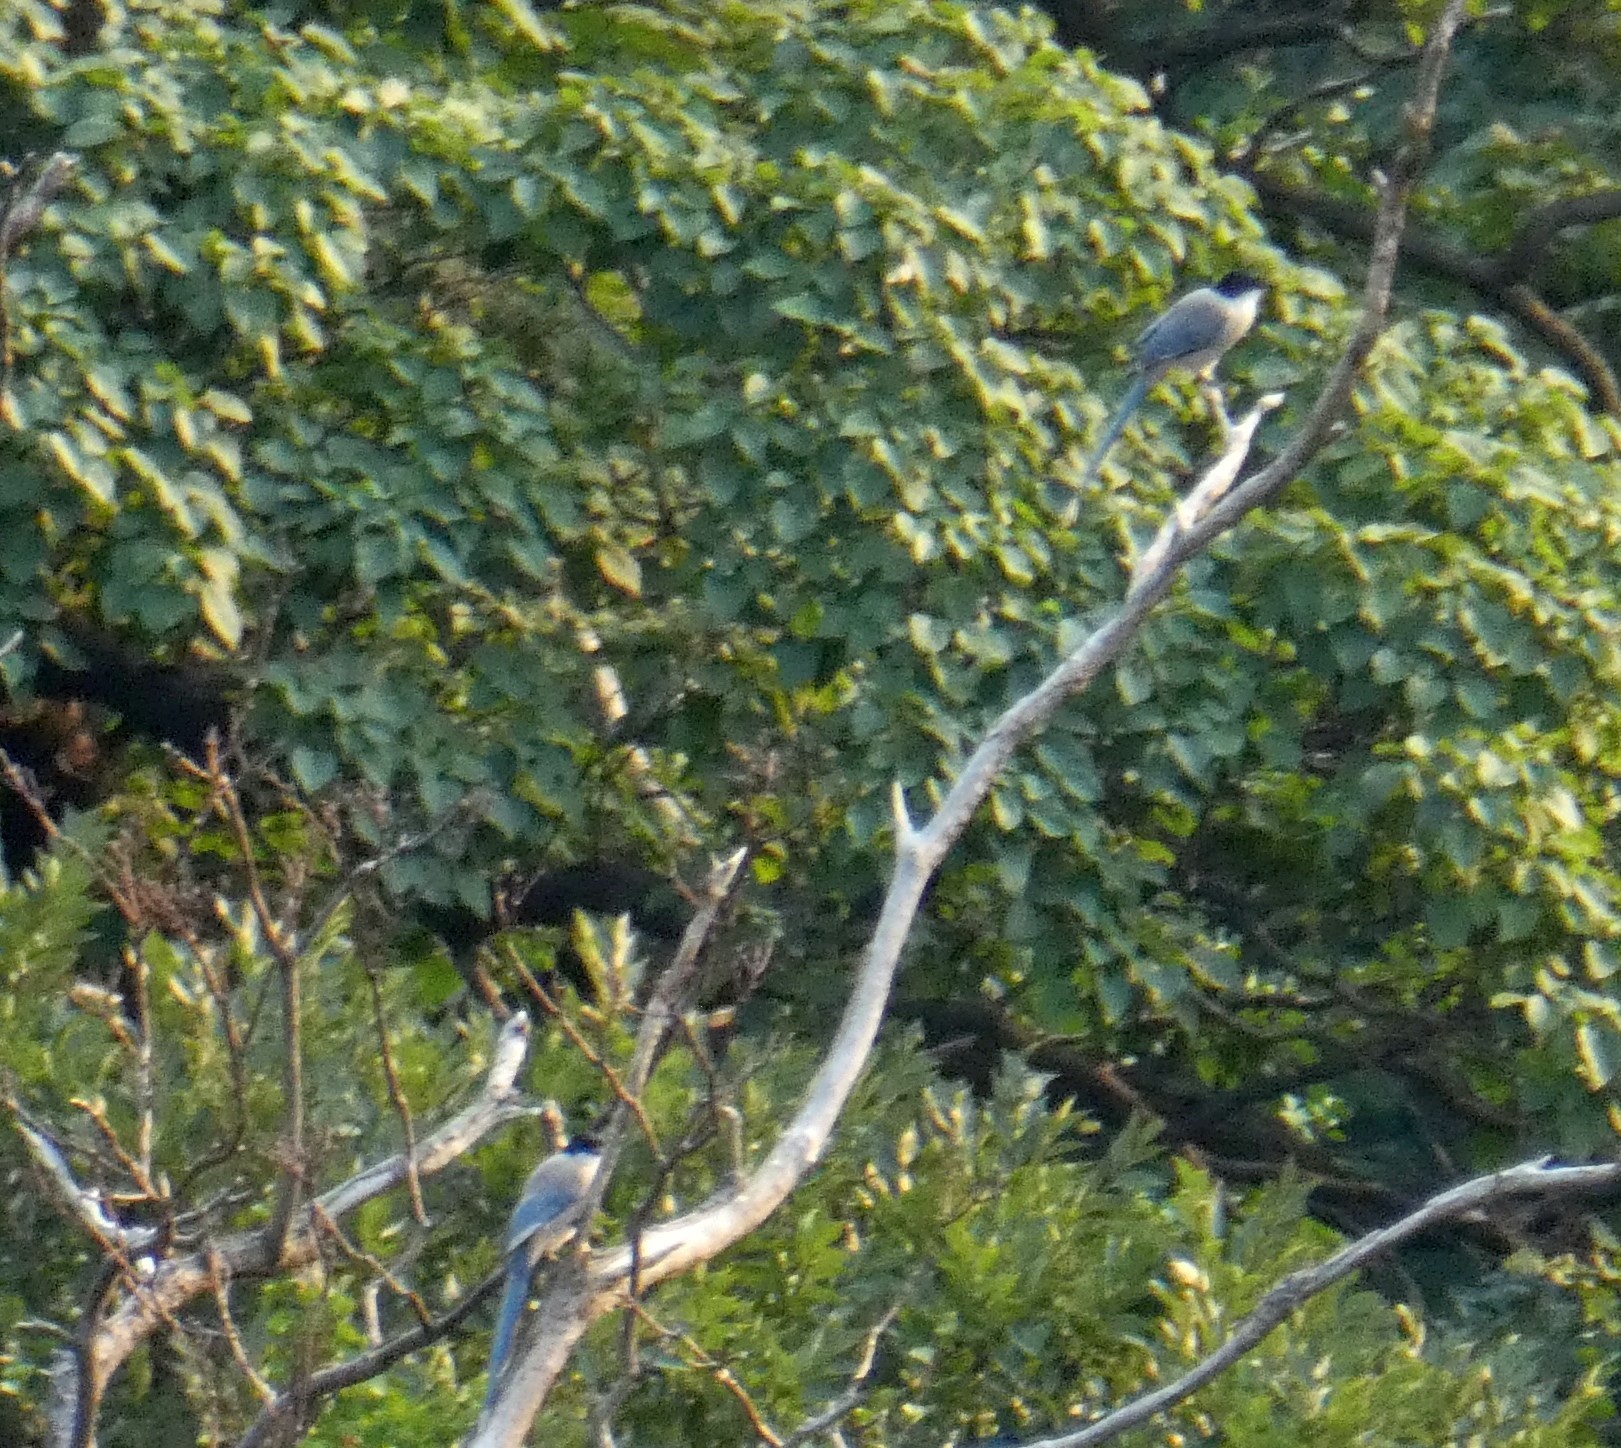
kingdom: Animalia
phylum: Chordata
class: Aves
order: Passeriformes
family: Corvidae
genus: Cyanopica
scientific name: Cyanopica cyanus
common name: Azure-winged magpie
